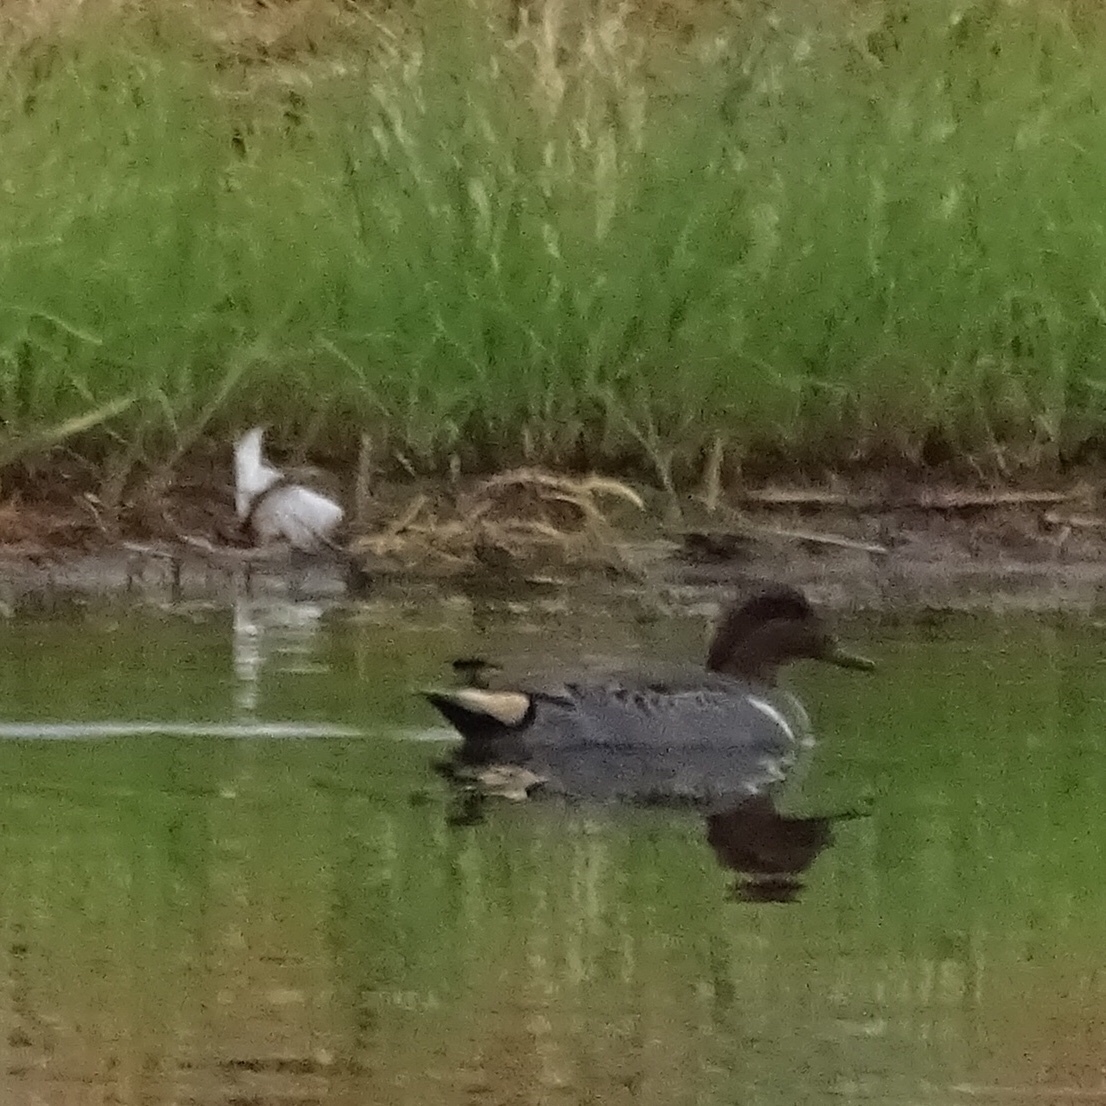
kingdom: Animalia
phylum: Chordata
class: Aves
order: Anseriformes
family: Anatidae
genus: Anas
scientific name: Anas carolinensis
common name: Green-winged teal
